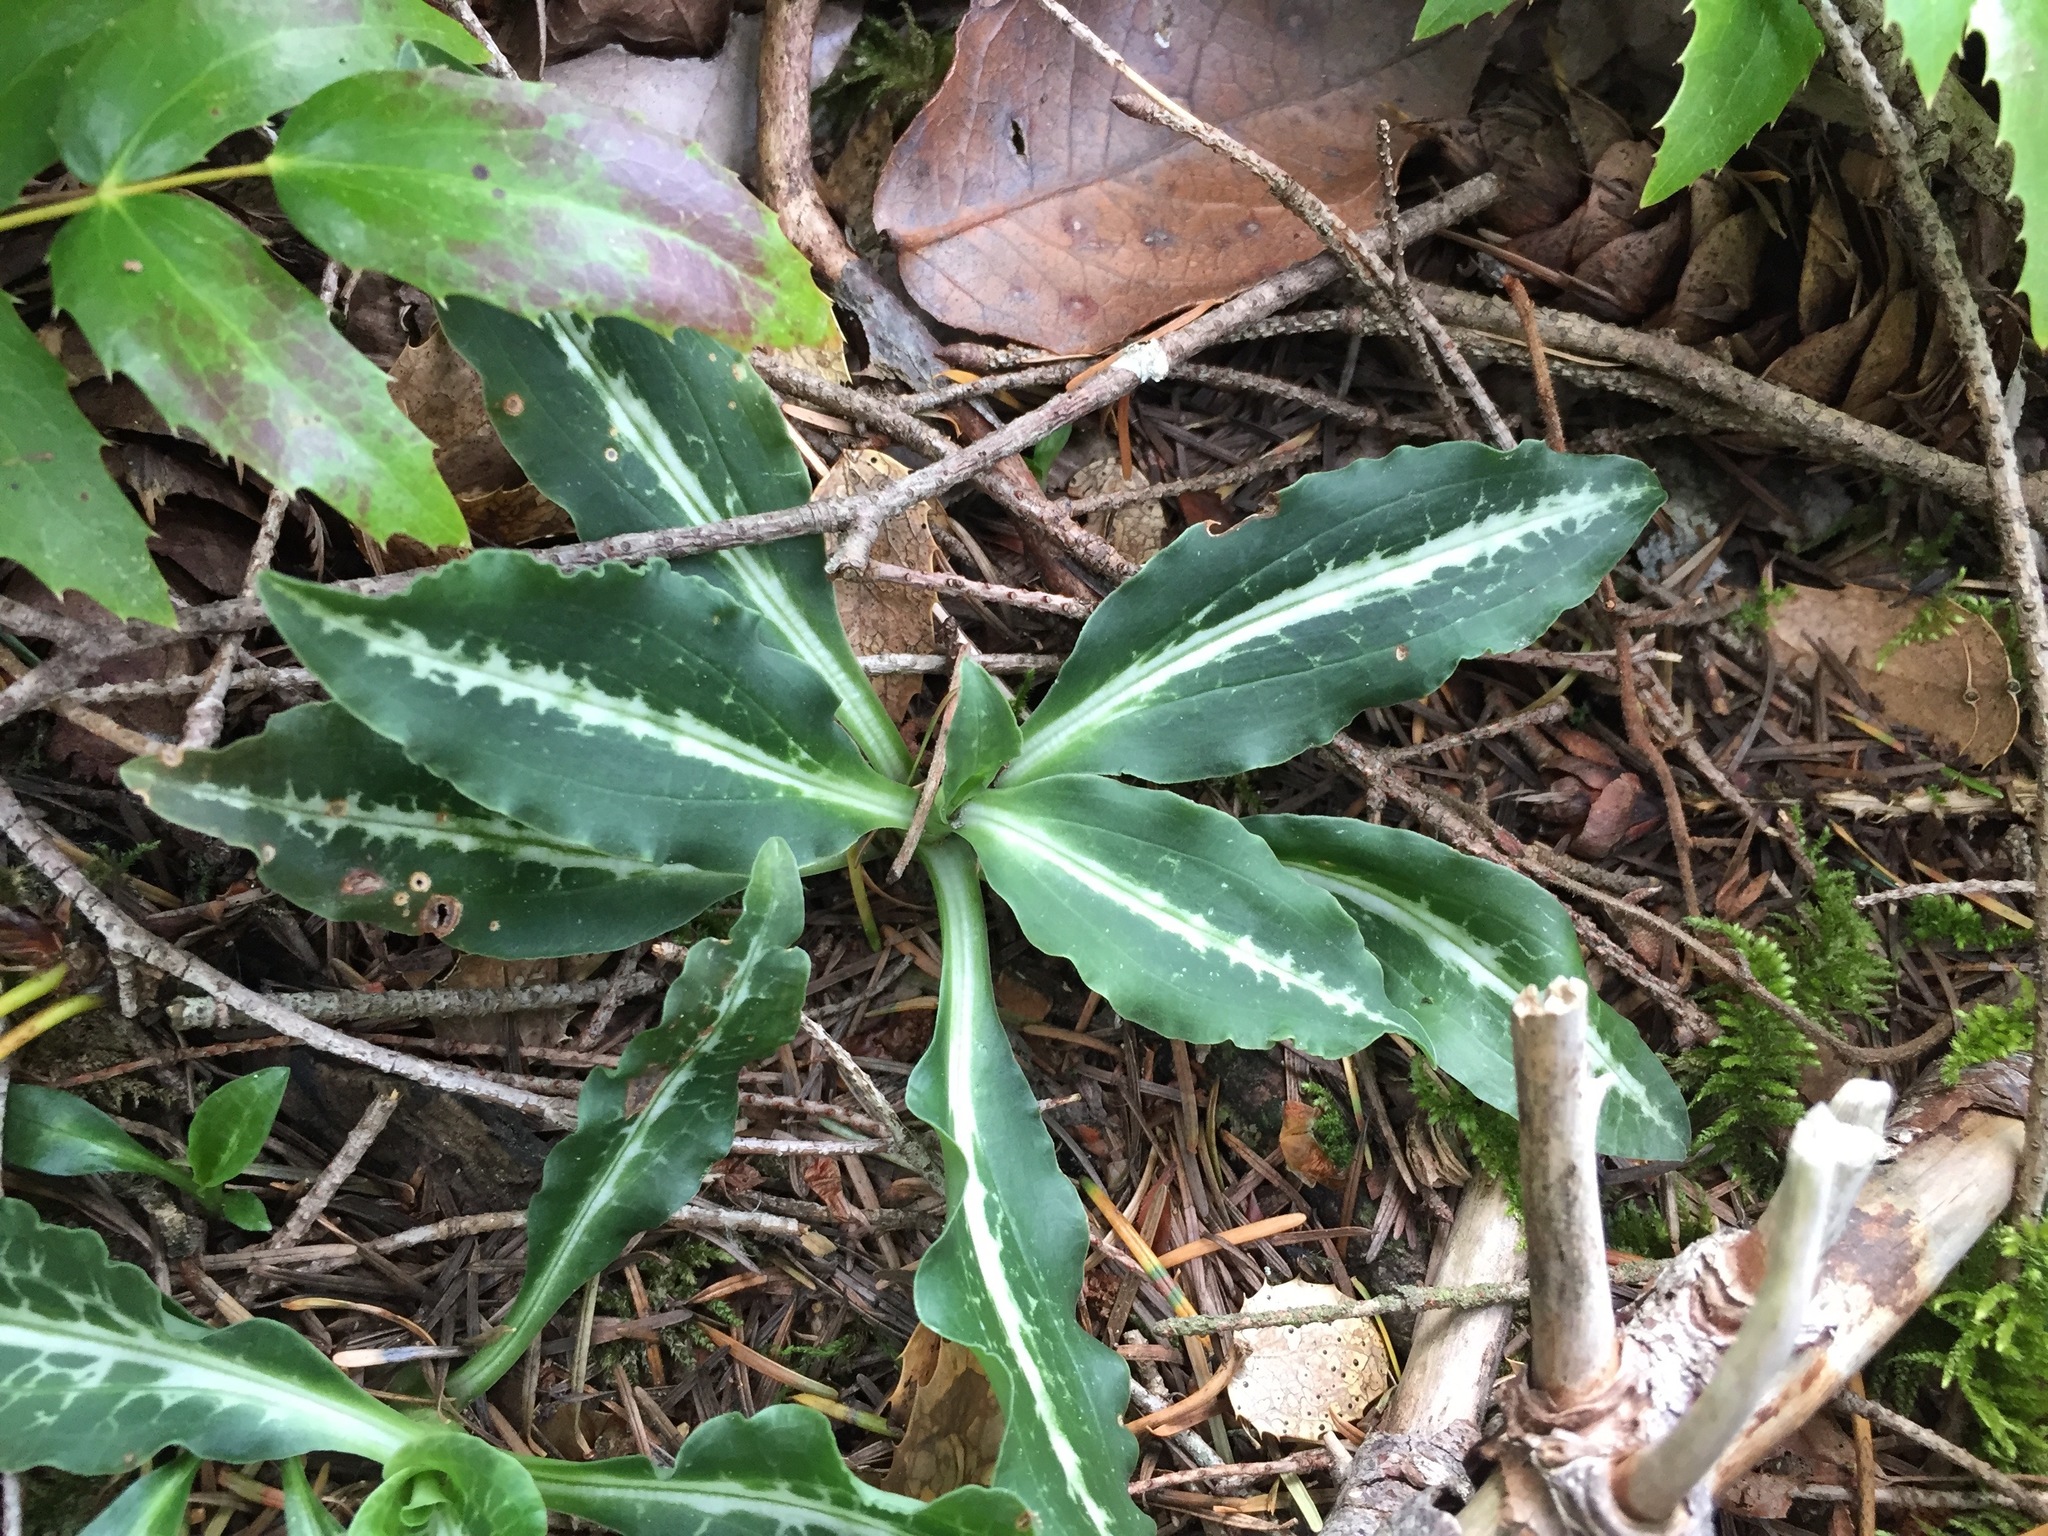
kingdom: Plantae
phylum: Tracheophyta
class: Liliopsida
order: Asparagales
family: Orchidaceae
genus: Goodyera
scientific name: Goodyera oblongifolia
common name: Giant rattlesnake-plantain
